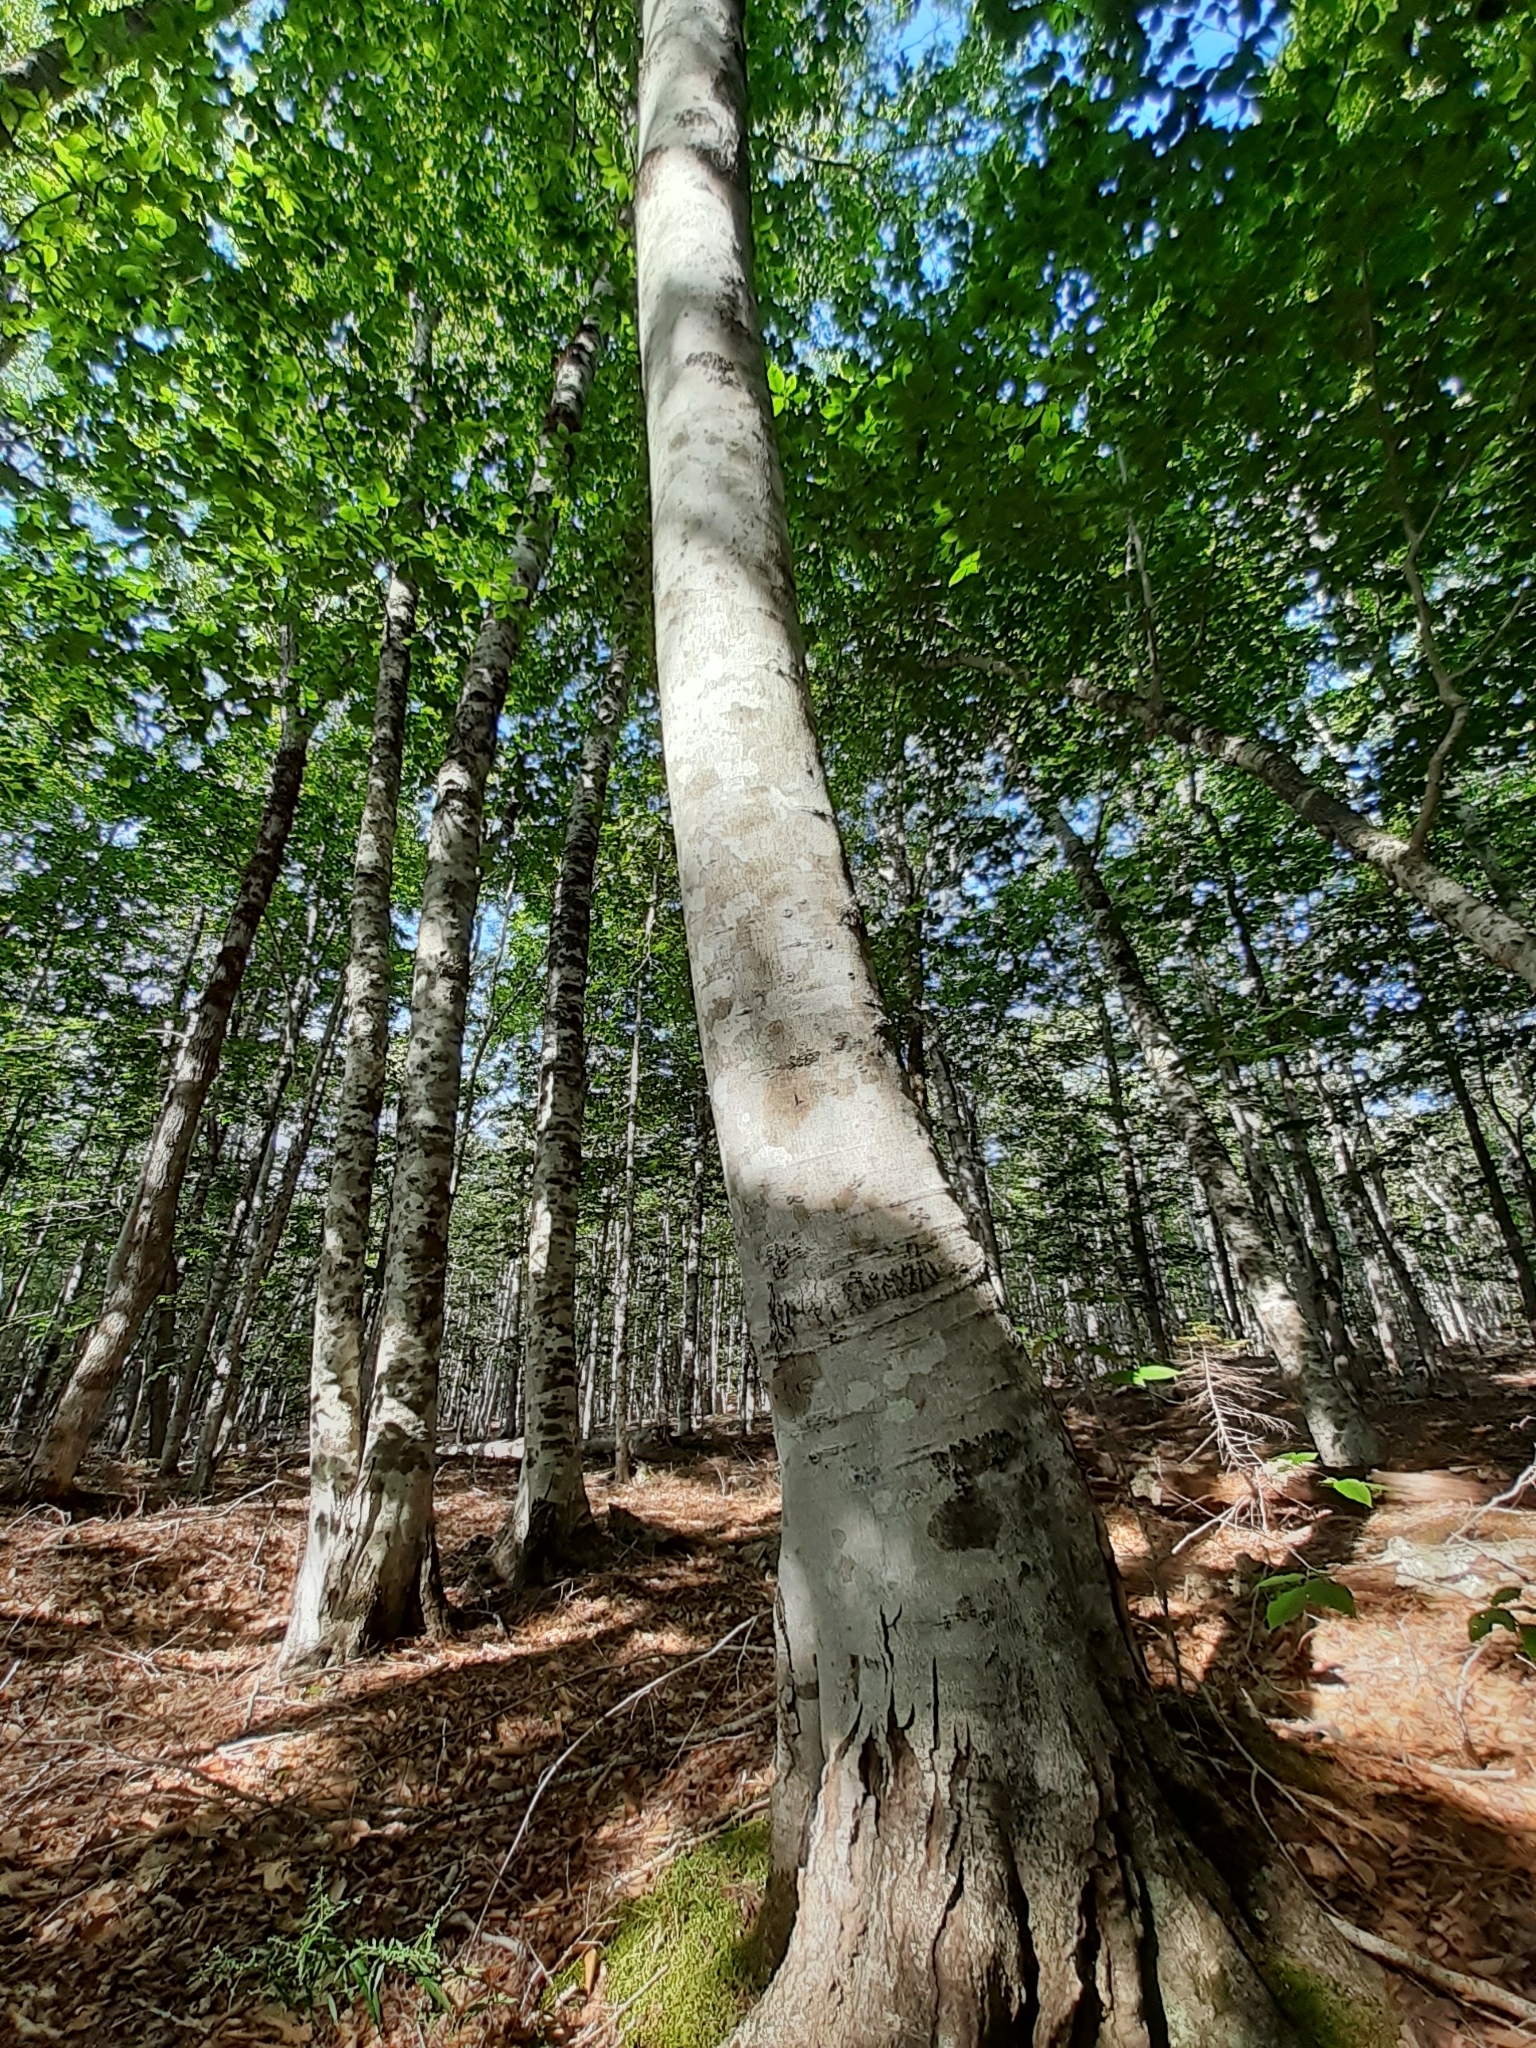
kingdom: Plantae
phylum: Tracheophyta
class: Magnoliopsida
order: Fagales
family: Fagaceae
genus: Fagus
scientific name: Fagus grandifolia
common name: American beech
